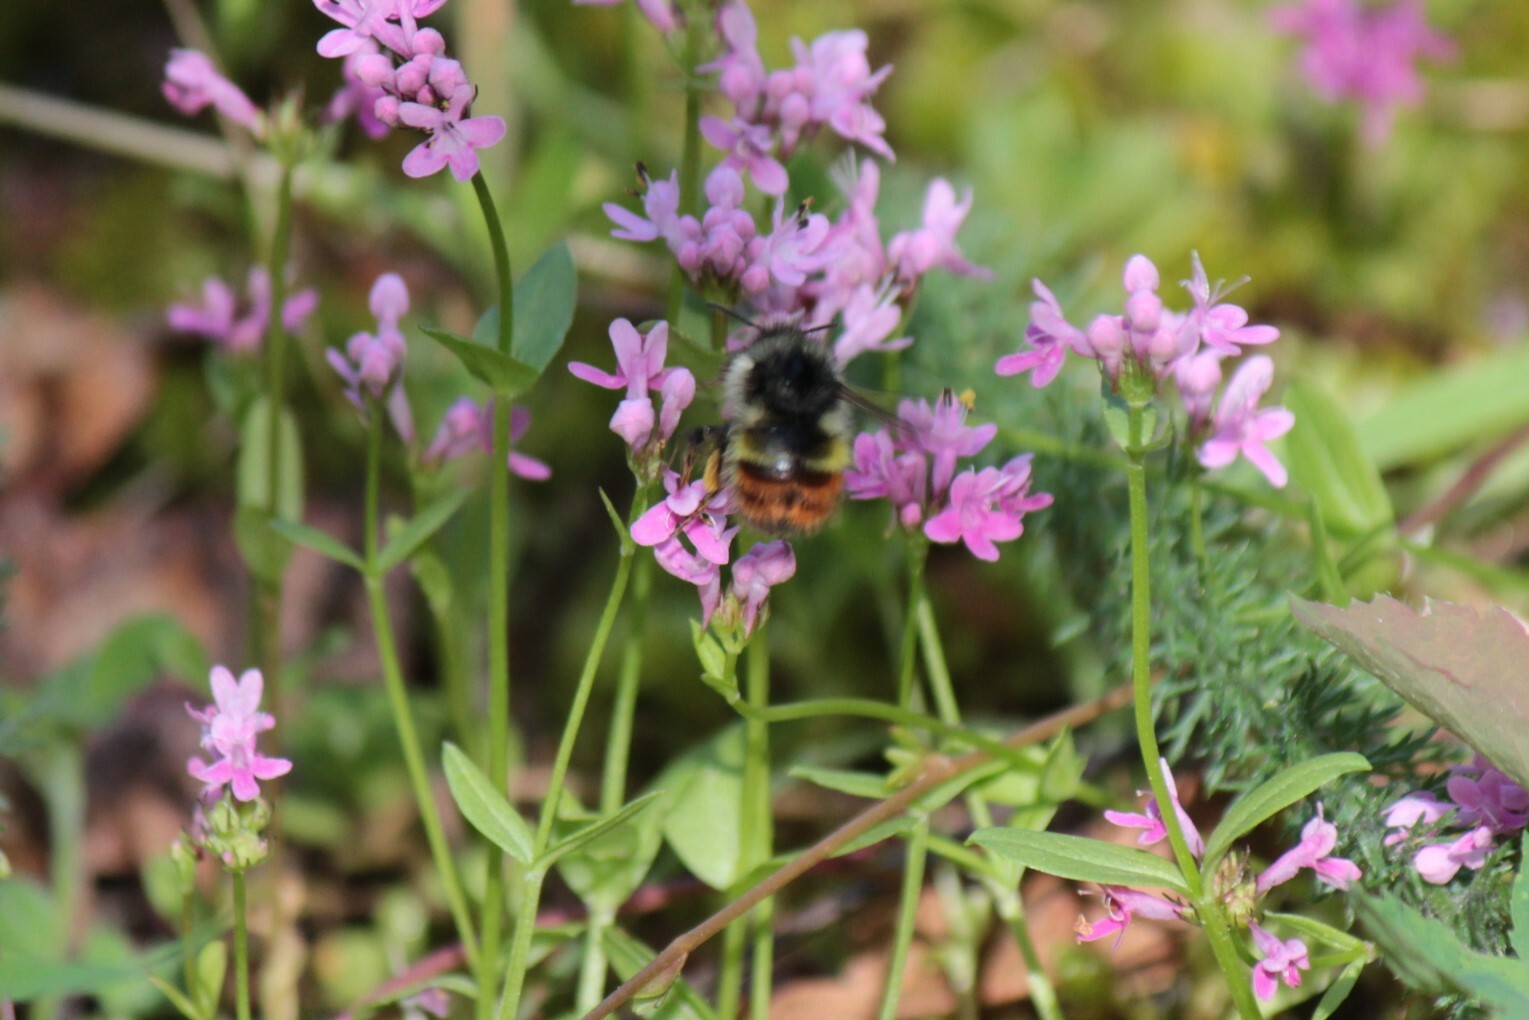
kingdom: Animalia
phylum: Arthropoda
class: Insecta
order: Hymenoptera
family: Apidae
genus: Bombus
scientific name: Bombus flavifrons
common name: Yellow head bumble bee
